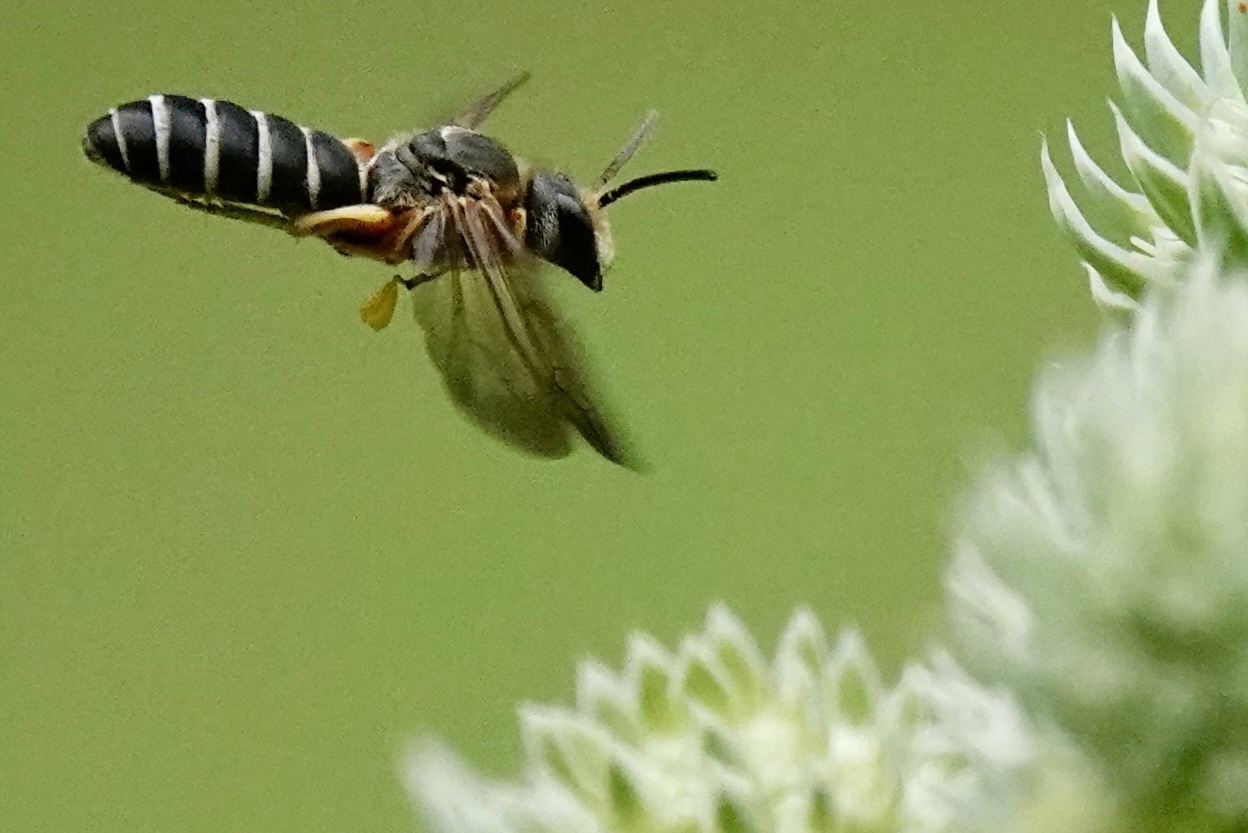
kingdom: Animalia
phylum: Arthropoda
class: Insecta
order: Hymenoptera
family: Halictidae
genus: Halictus
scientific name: Halictus parallelus
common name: Parallel-striped sweat bee
